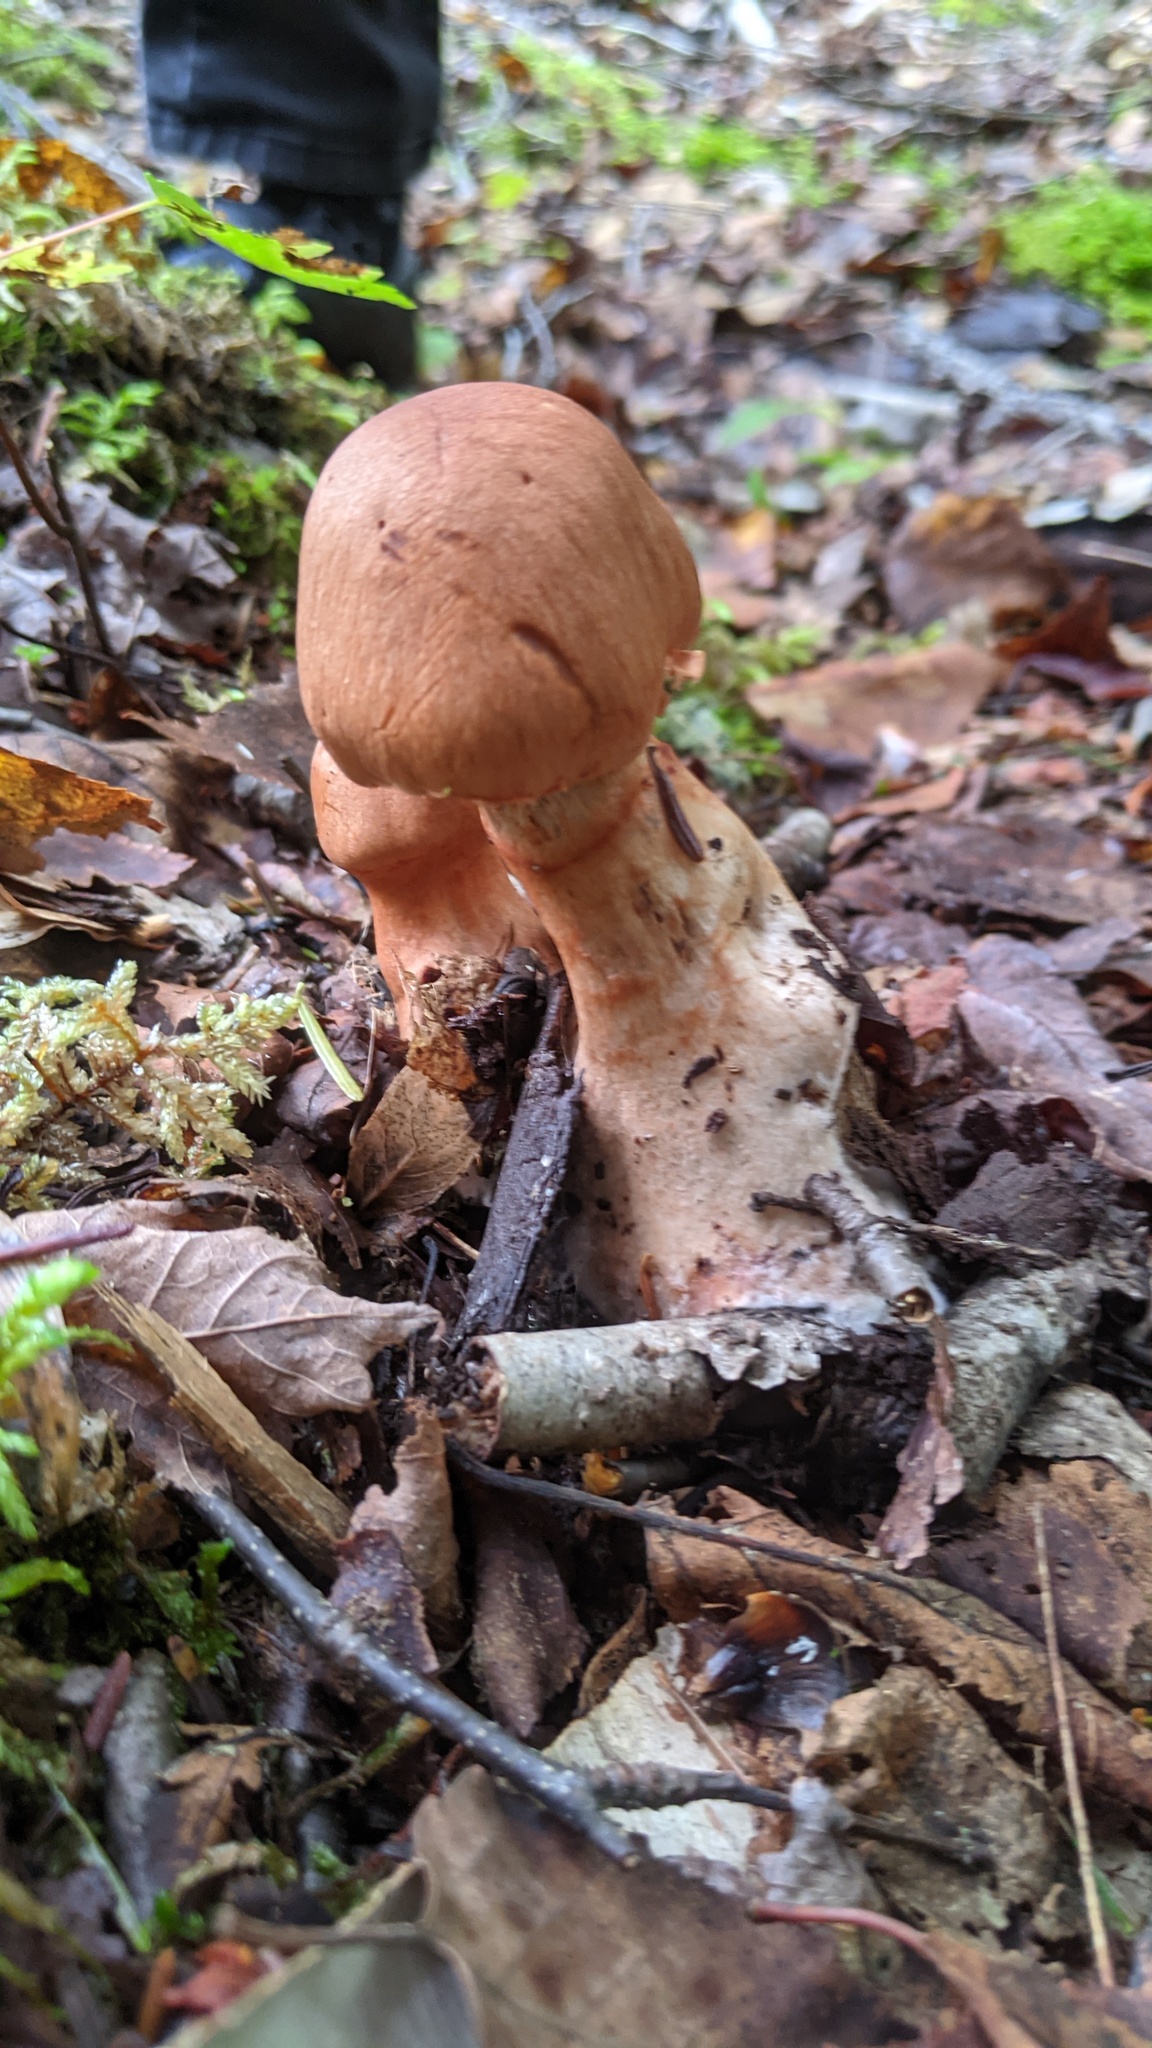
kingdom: Fungi
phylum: Basidiomycota
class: Agaricomycetes
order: Agaricales
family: Cortinariaceae
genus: Cortinarius
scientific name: Cortinarius armillatus
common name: Red banded webcap
